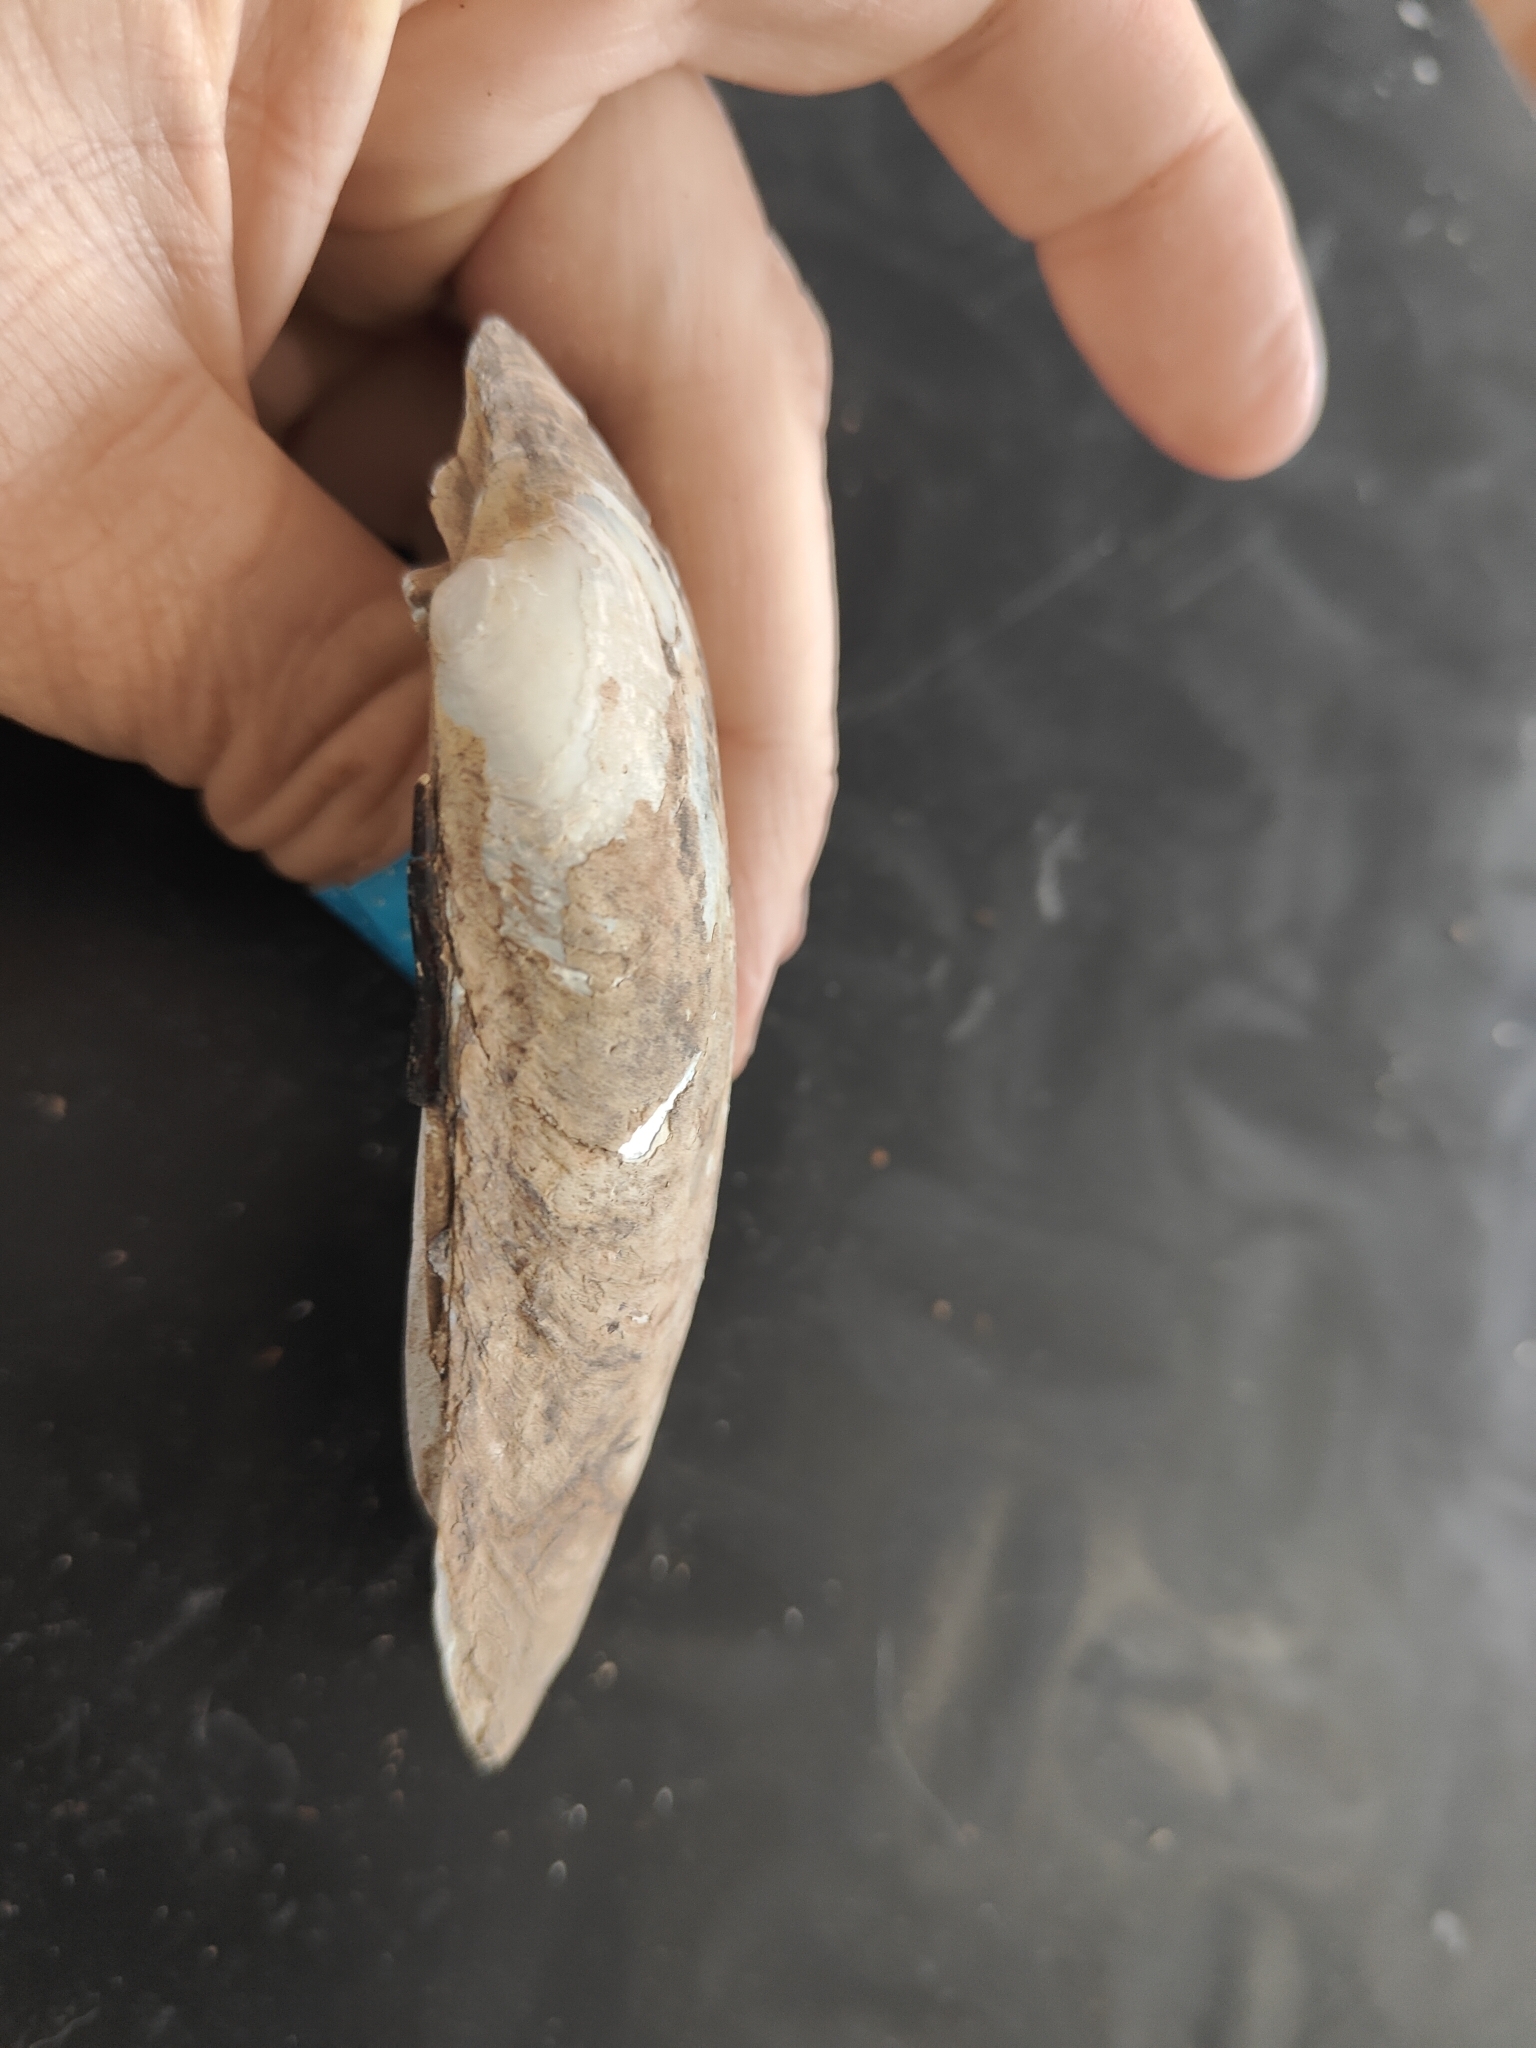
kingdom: Animalia
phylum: Mollusca
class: Bivalvia
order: Unionida
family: Unionidae
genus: Lampsilis
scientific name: Lampsilis siliquoidea
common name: Fatmucket
